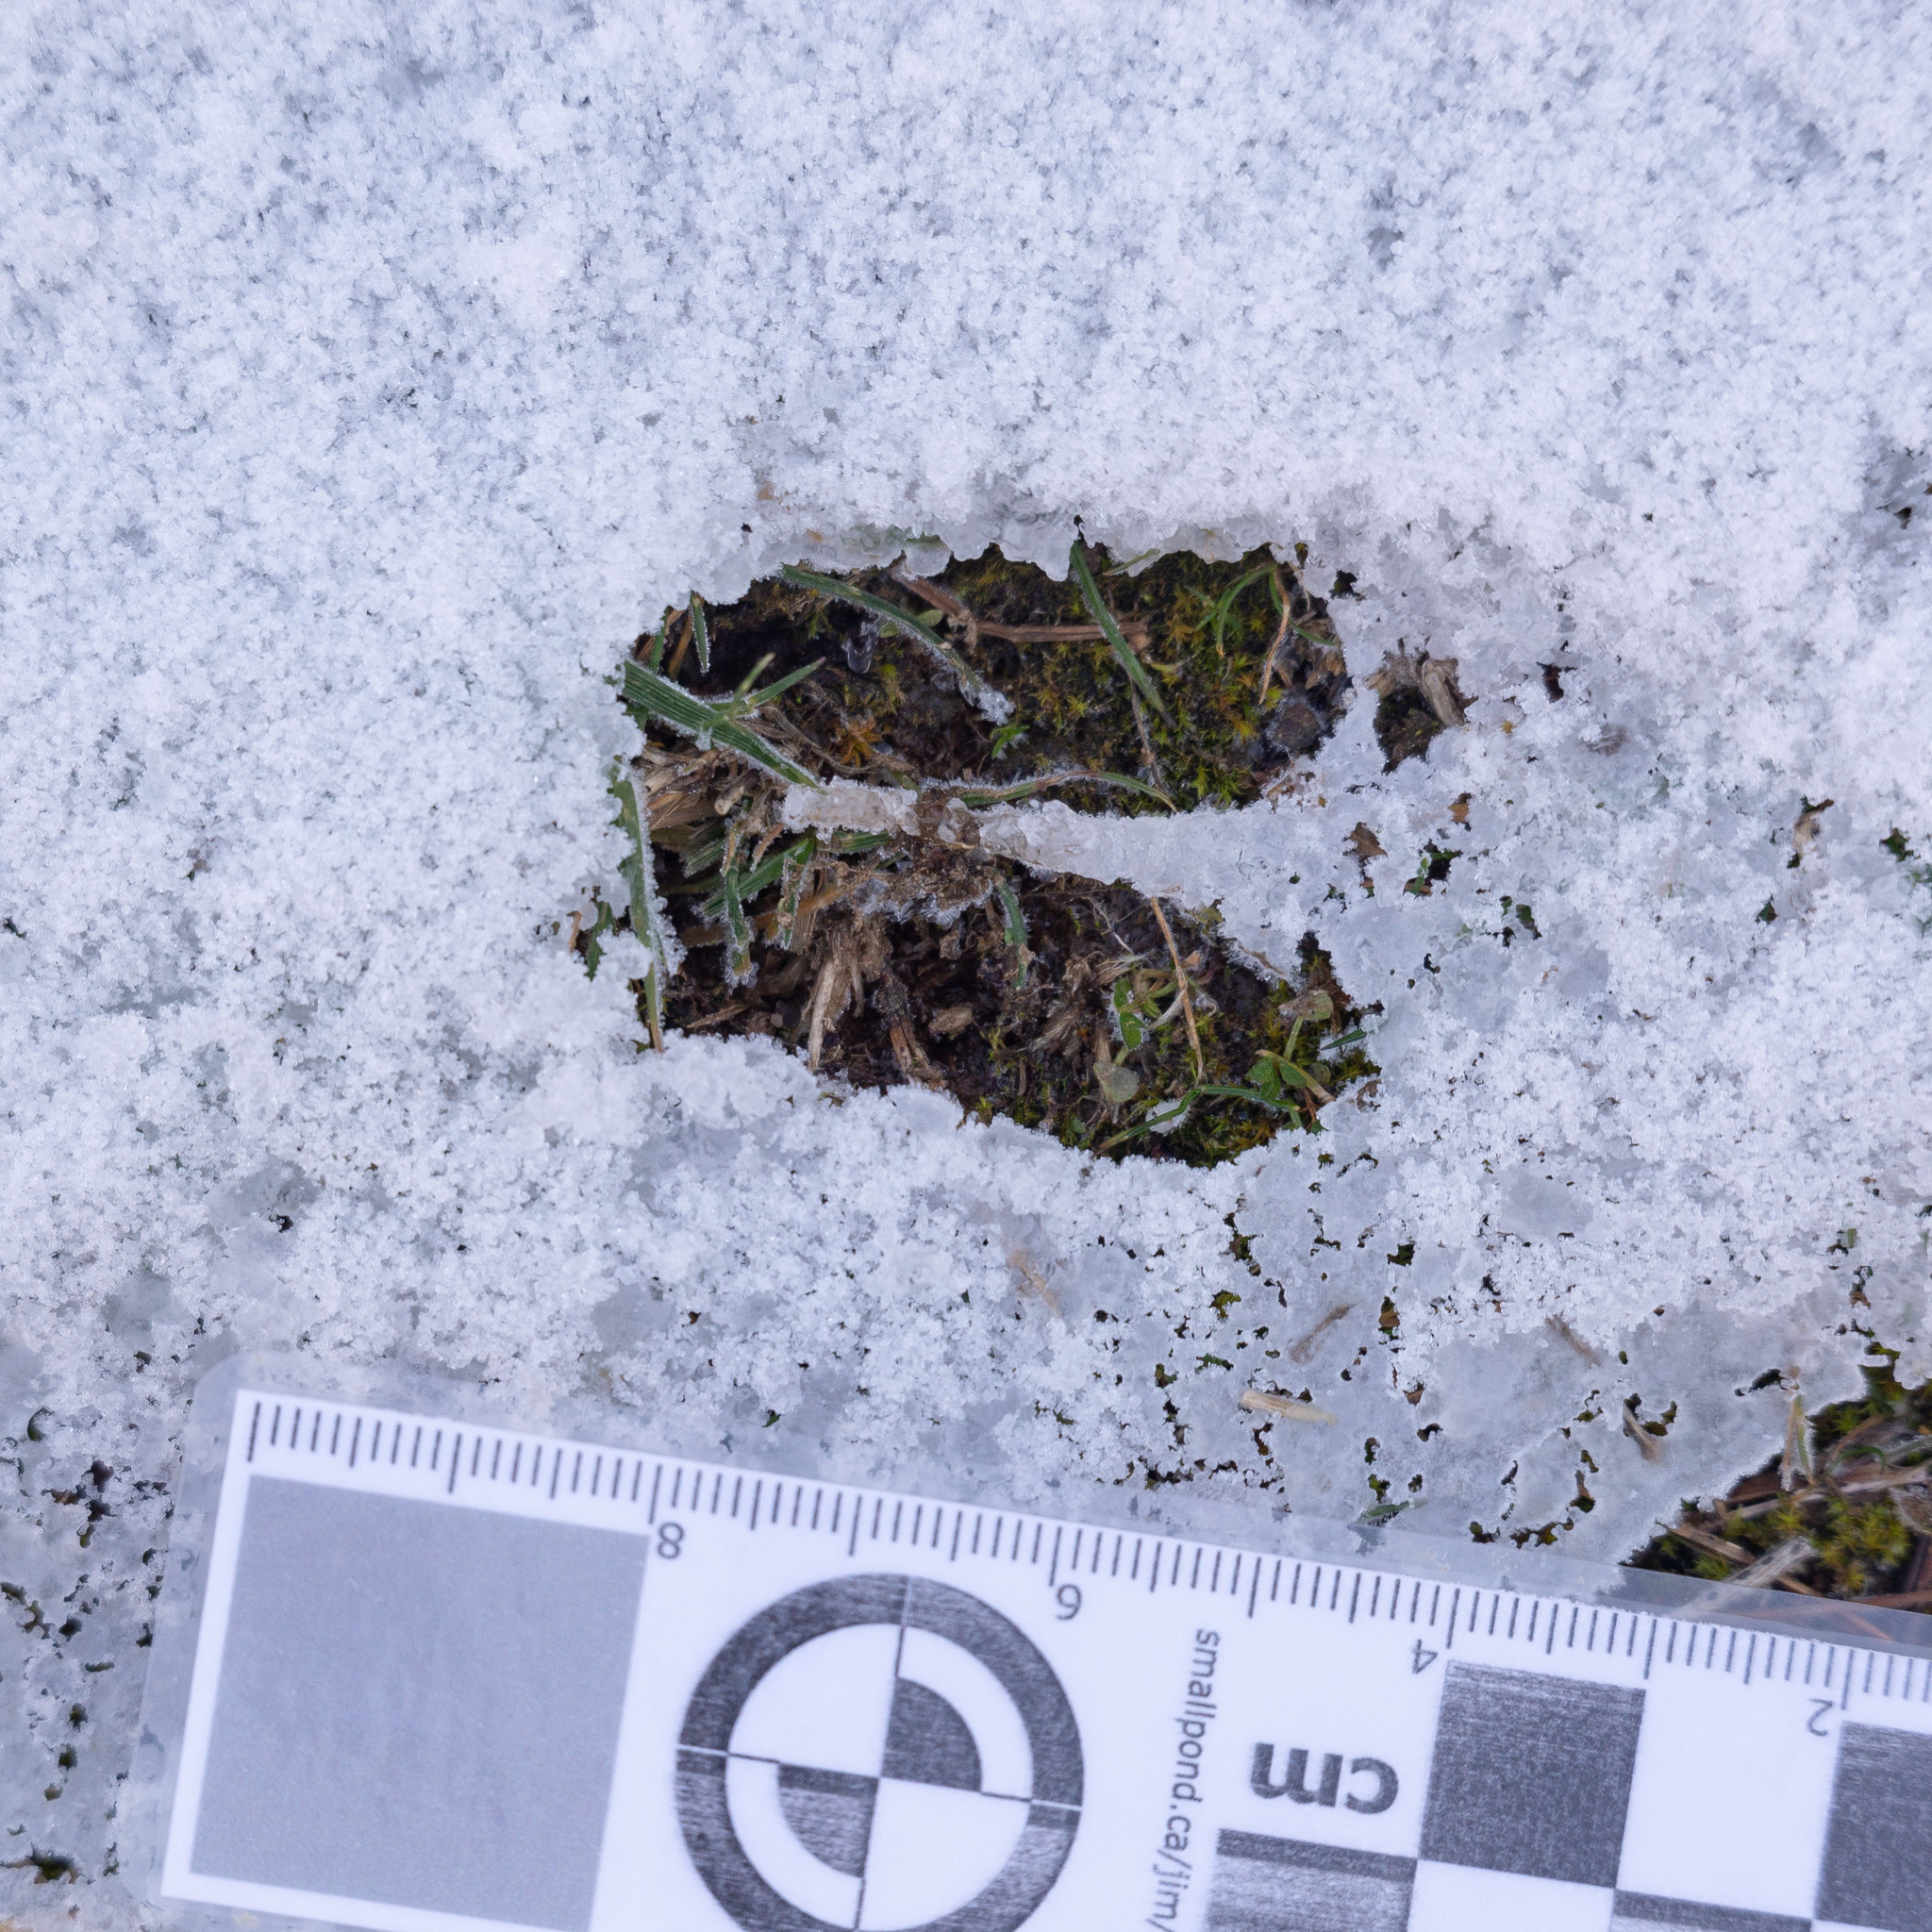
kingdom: Animalia
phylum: Chordata
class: Mammalia
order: Artiodactyla
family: Cervidae
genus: Capreolus
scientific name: Capreolus capreolus
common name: Western roe deer
